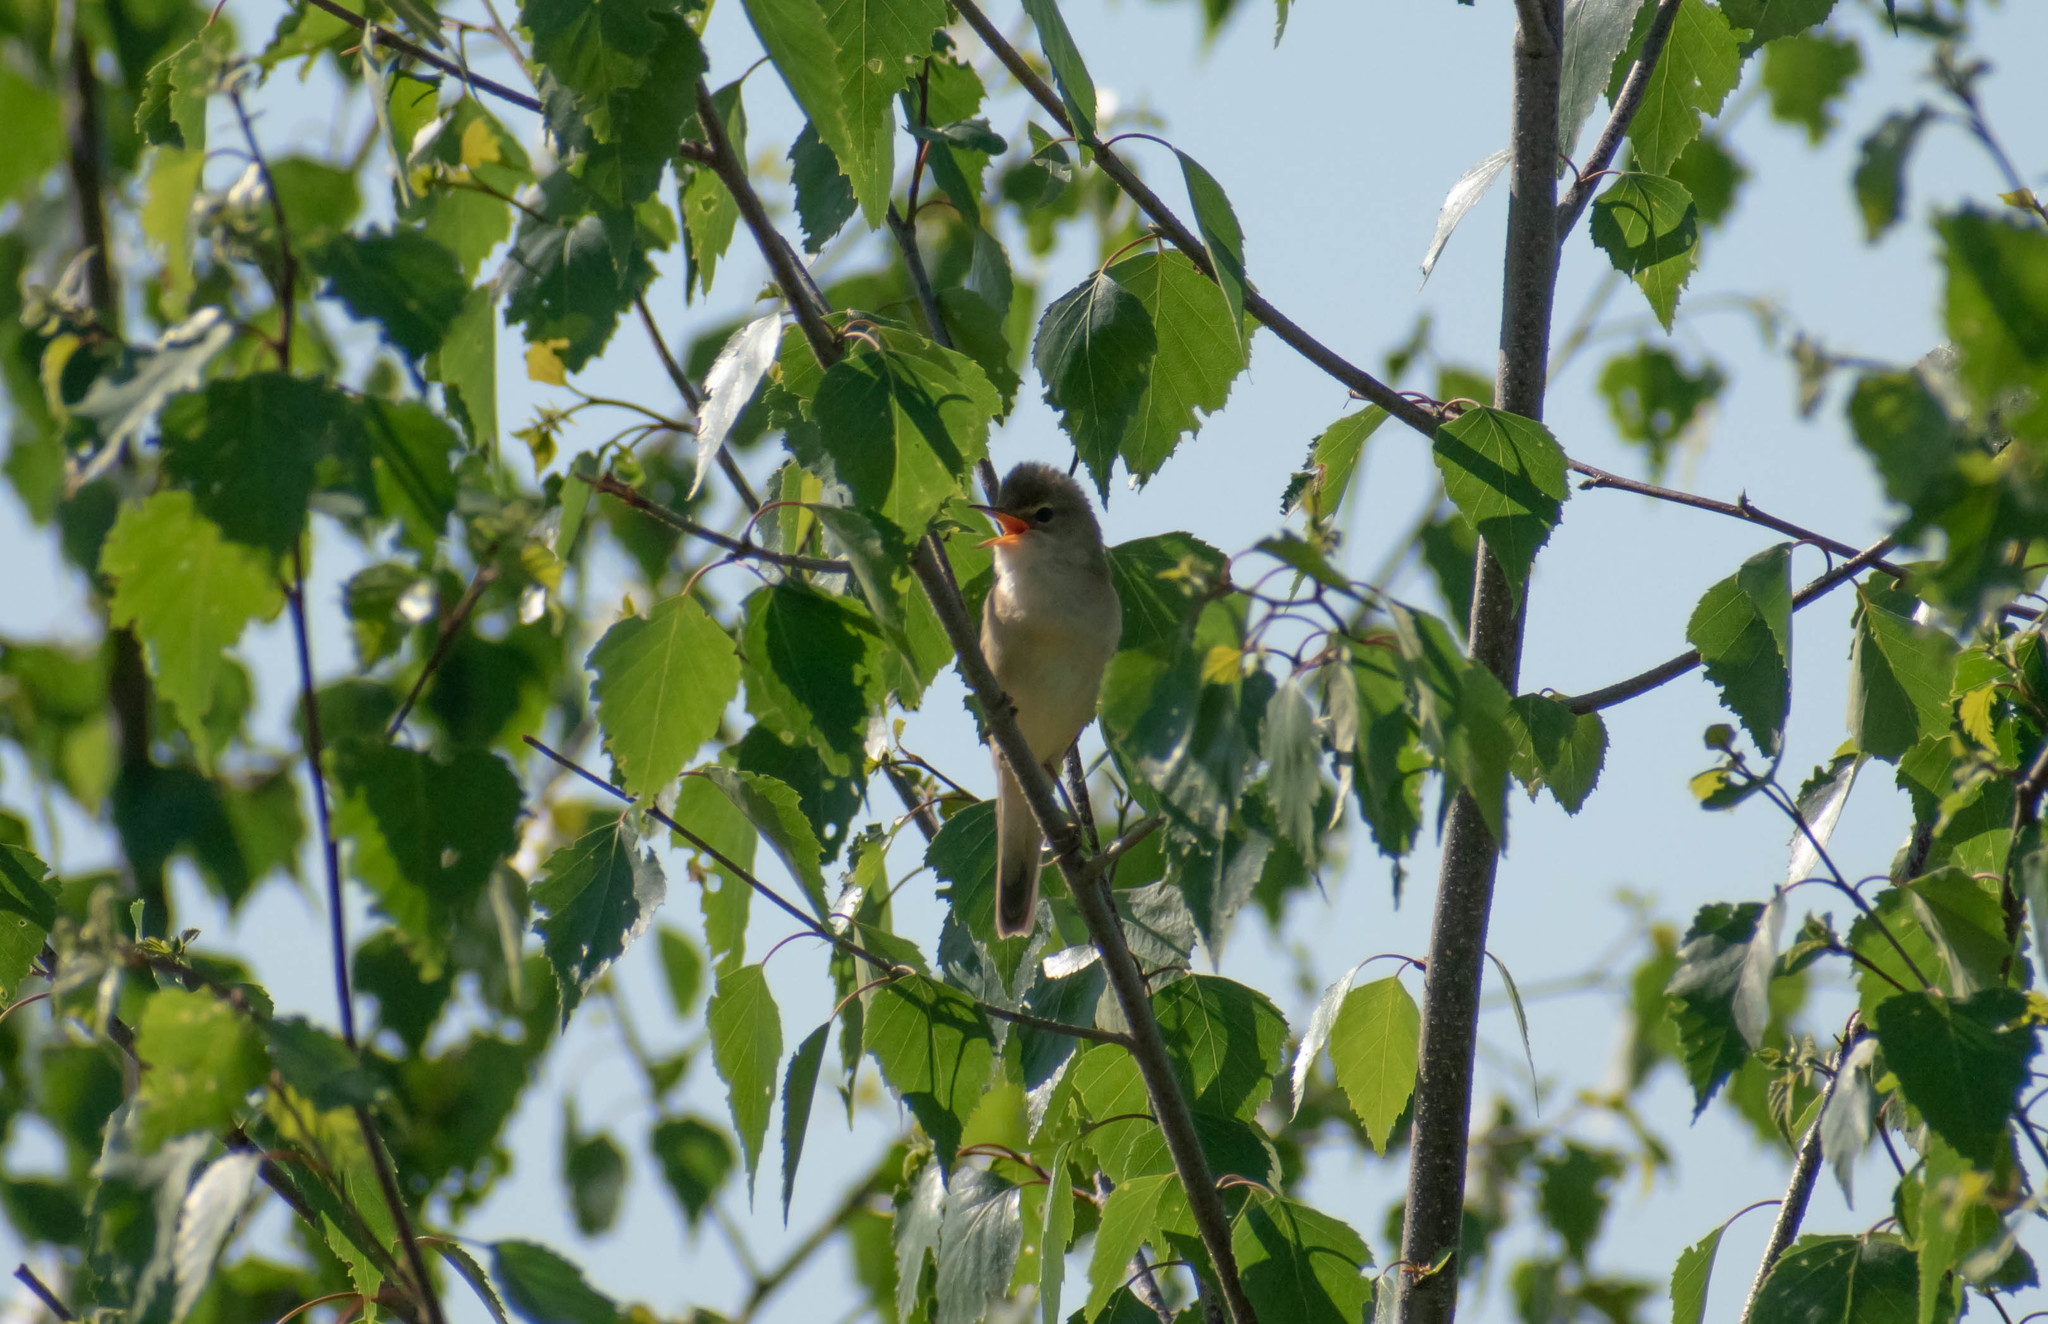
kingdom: Animalia
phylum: Chordata
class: Aves
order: Passeriformes
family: Acrocephalidae
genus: Acrocephalus
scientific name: Acrocephalus palustris
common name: Marsh warbler
